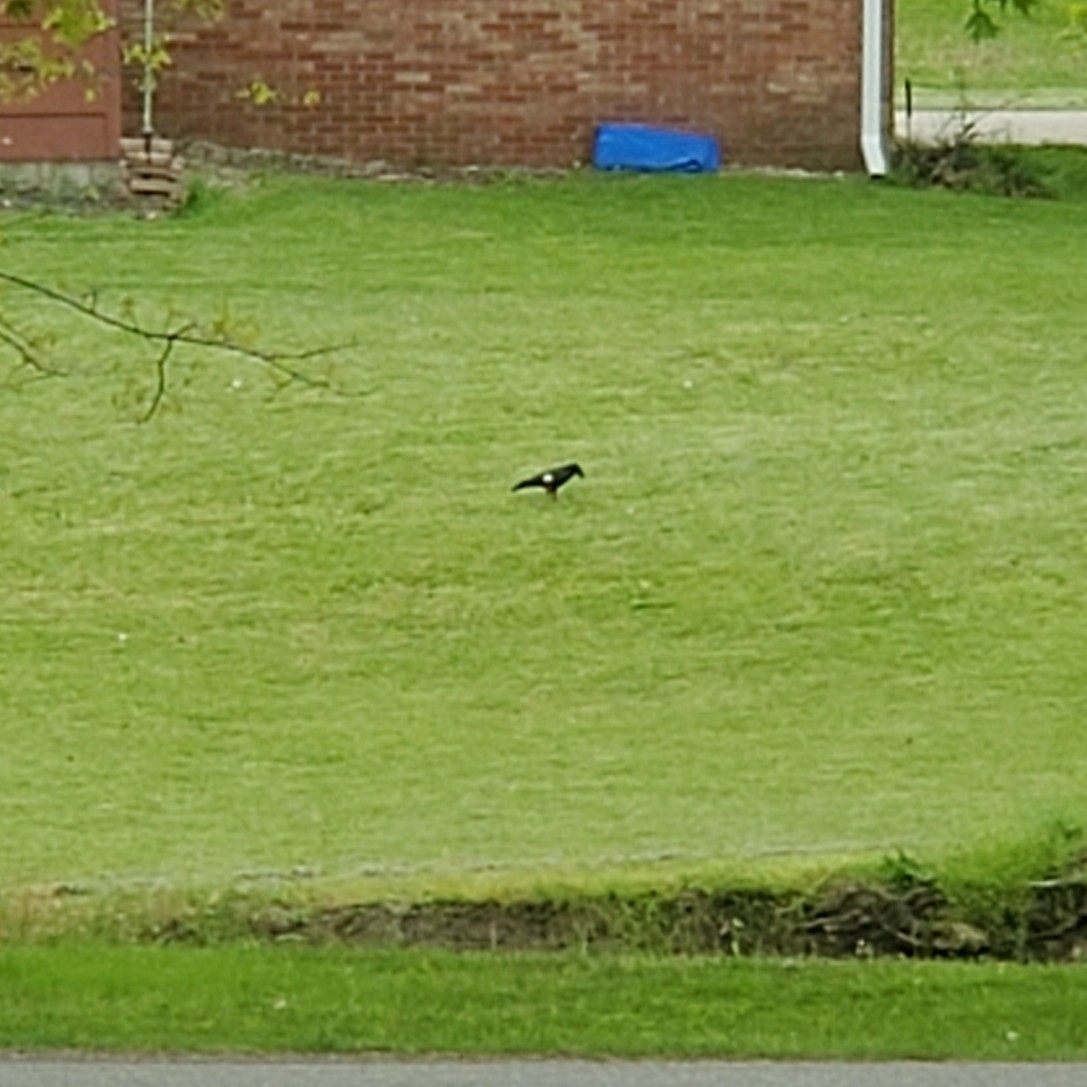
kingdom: Animalia
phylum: Chordata
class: Aves
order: Passeriformes
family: Corvidae
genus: Corvus
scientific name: Corvus brachyrhynchos
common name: American crow
